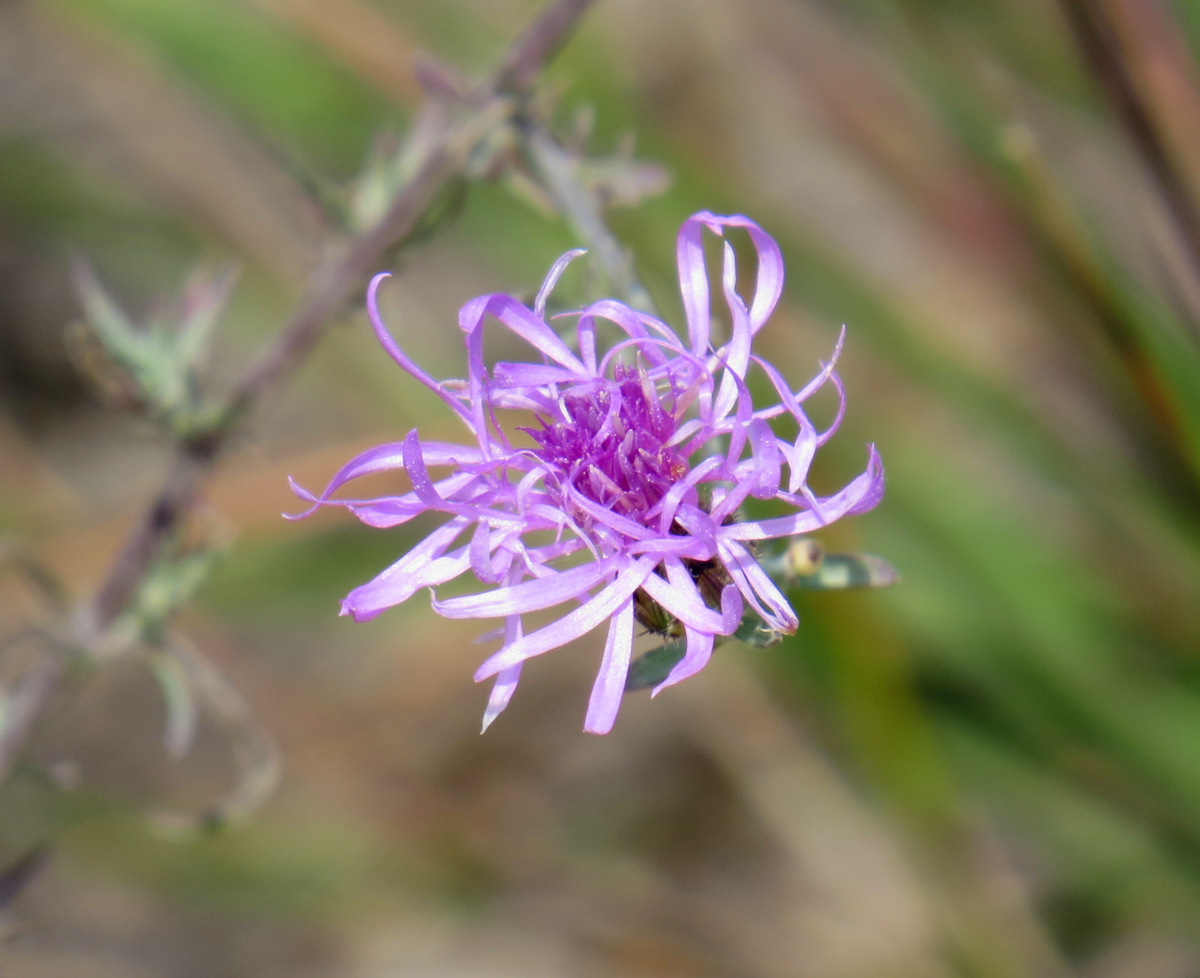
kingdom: Plantae
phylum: Tracheophyta
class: Magnoliopsida
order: Asterales
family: Asteraceae
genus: Centaurea
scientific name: Centaurea stoebe
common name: Spotted knapweed
